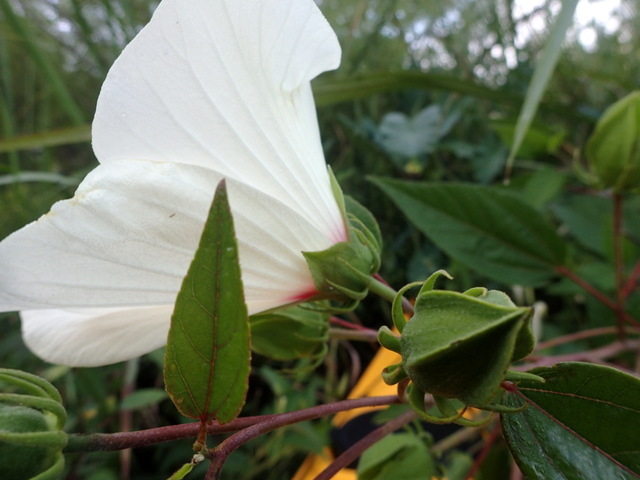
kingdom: Plantae
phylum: Tracheophyta
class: Magnoliopsida
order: Malvales
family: Malvaceae
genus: Hibiscus
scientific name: Hibiscus moscheutos
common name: Common rose-mallow
